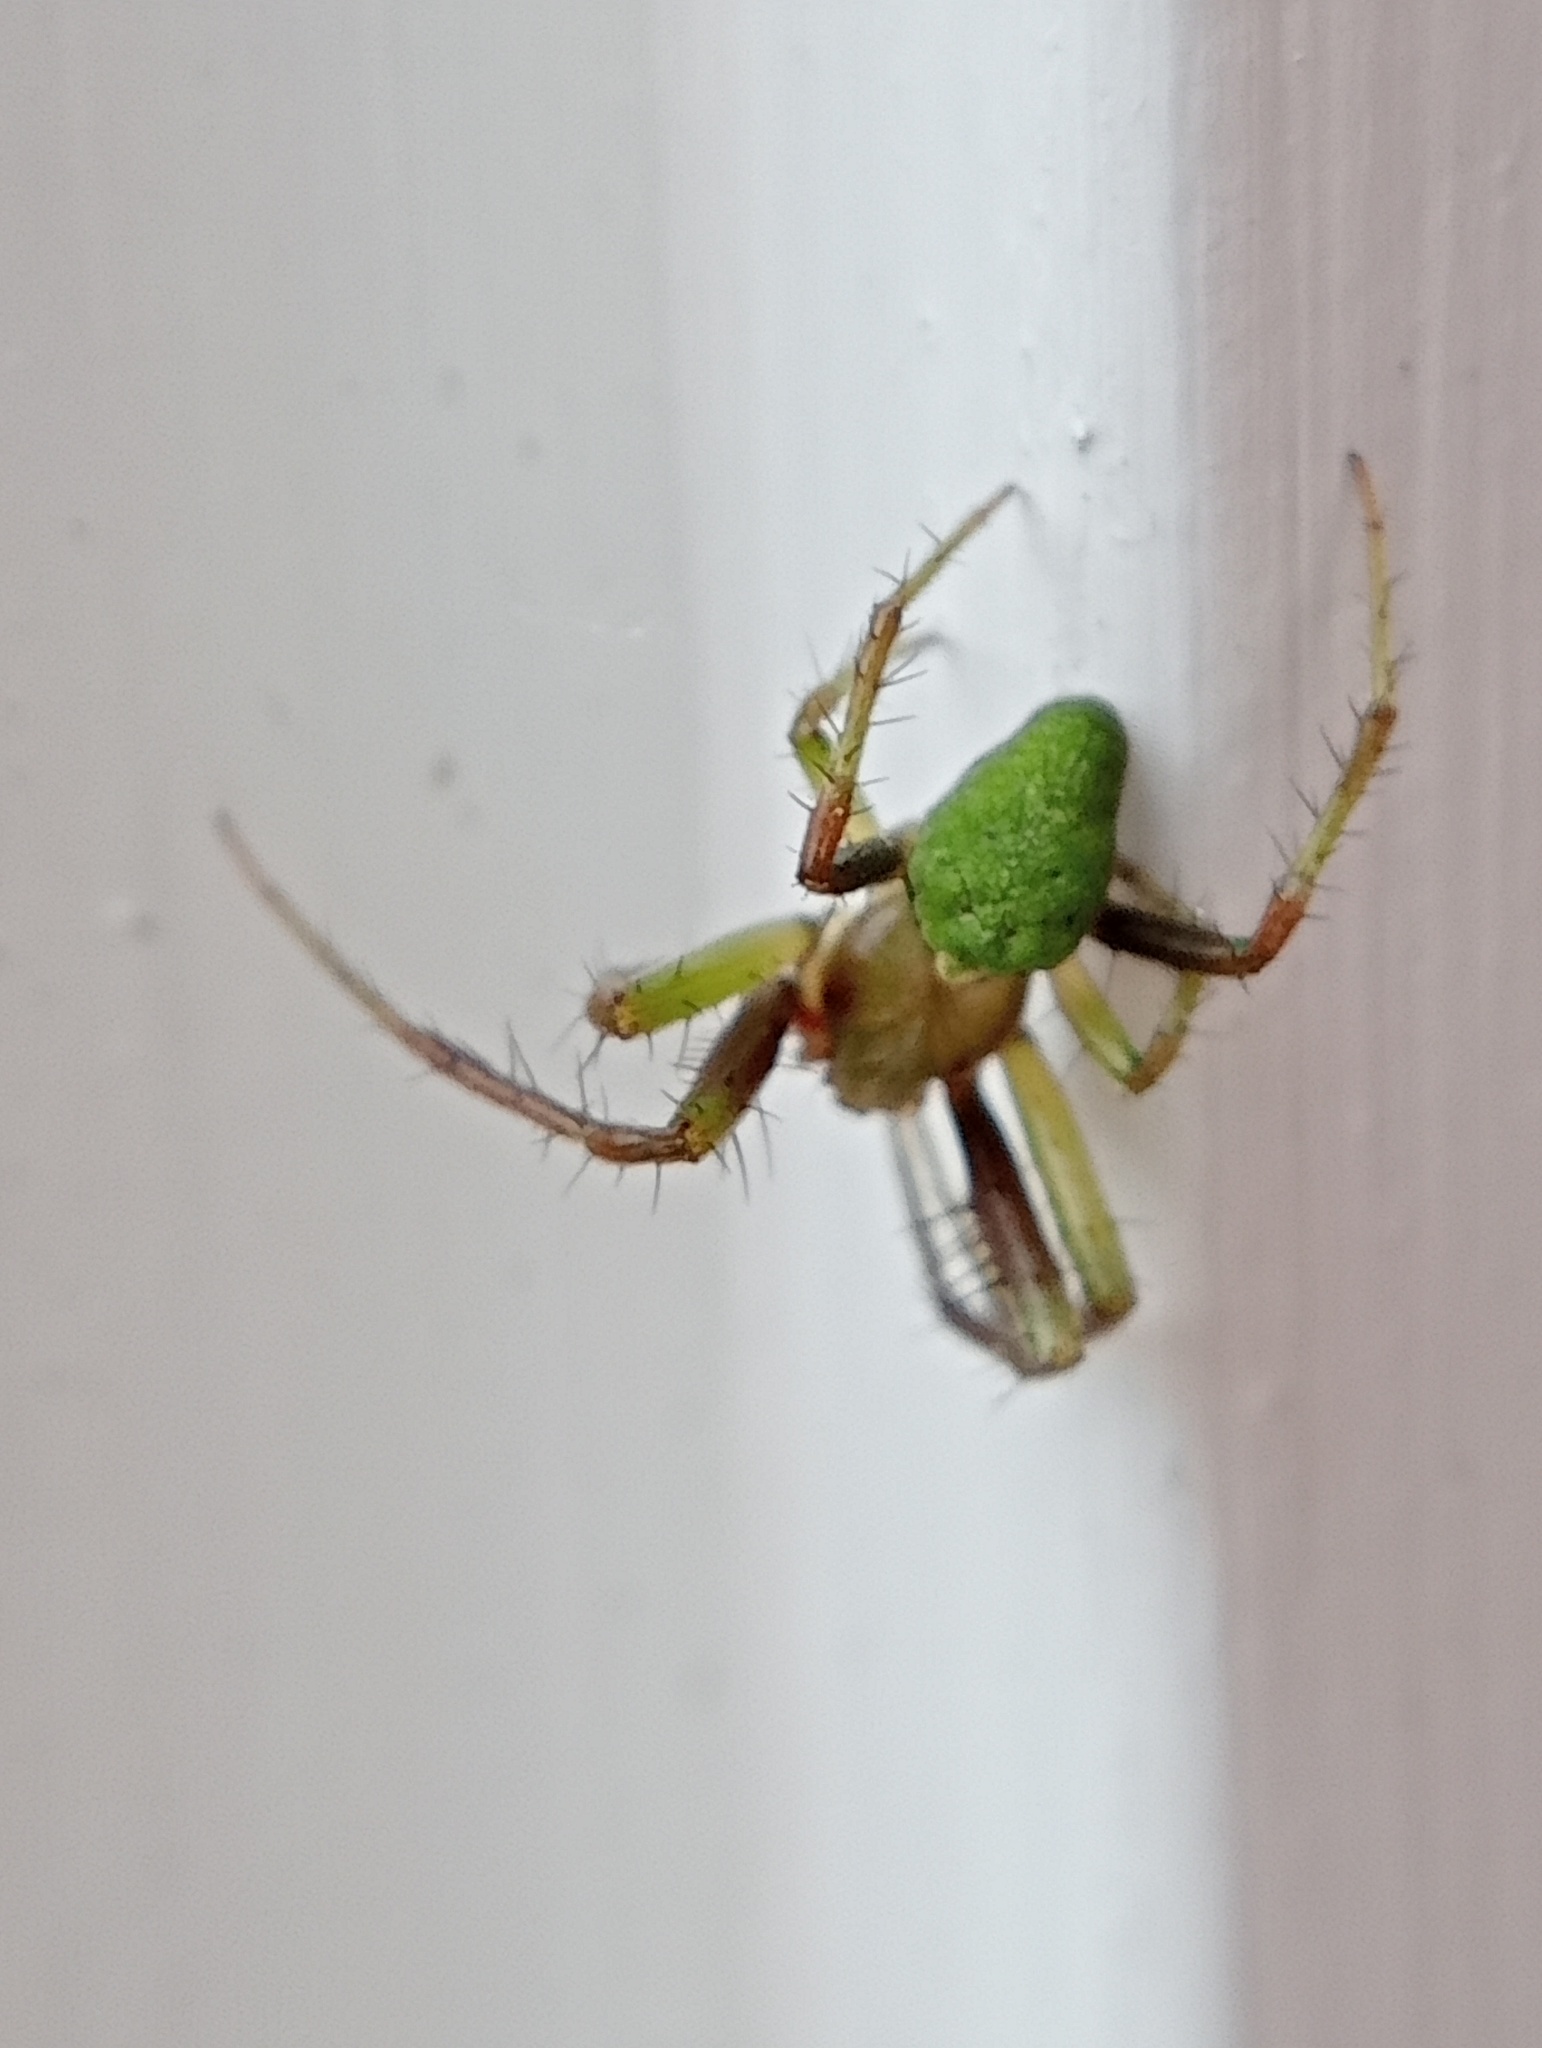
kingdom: Animalia
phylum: Arthropoda
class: Arachnida
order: Araneae
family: Araneidae
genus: Colaranea
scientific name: Colaranea viriditas
